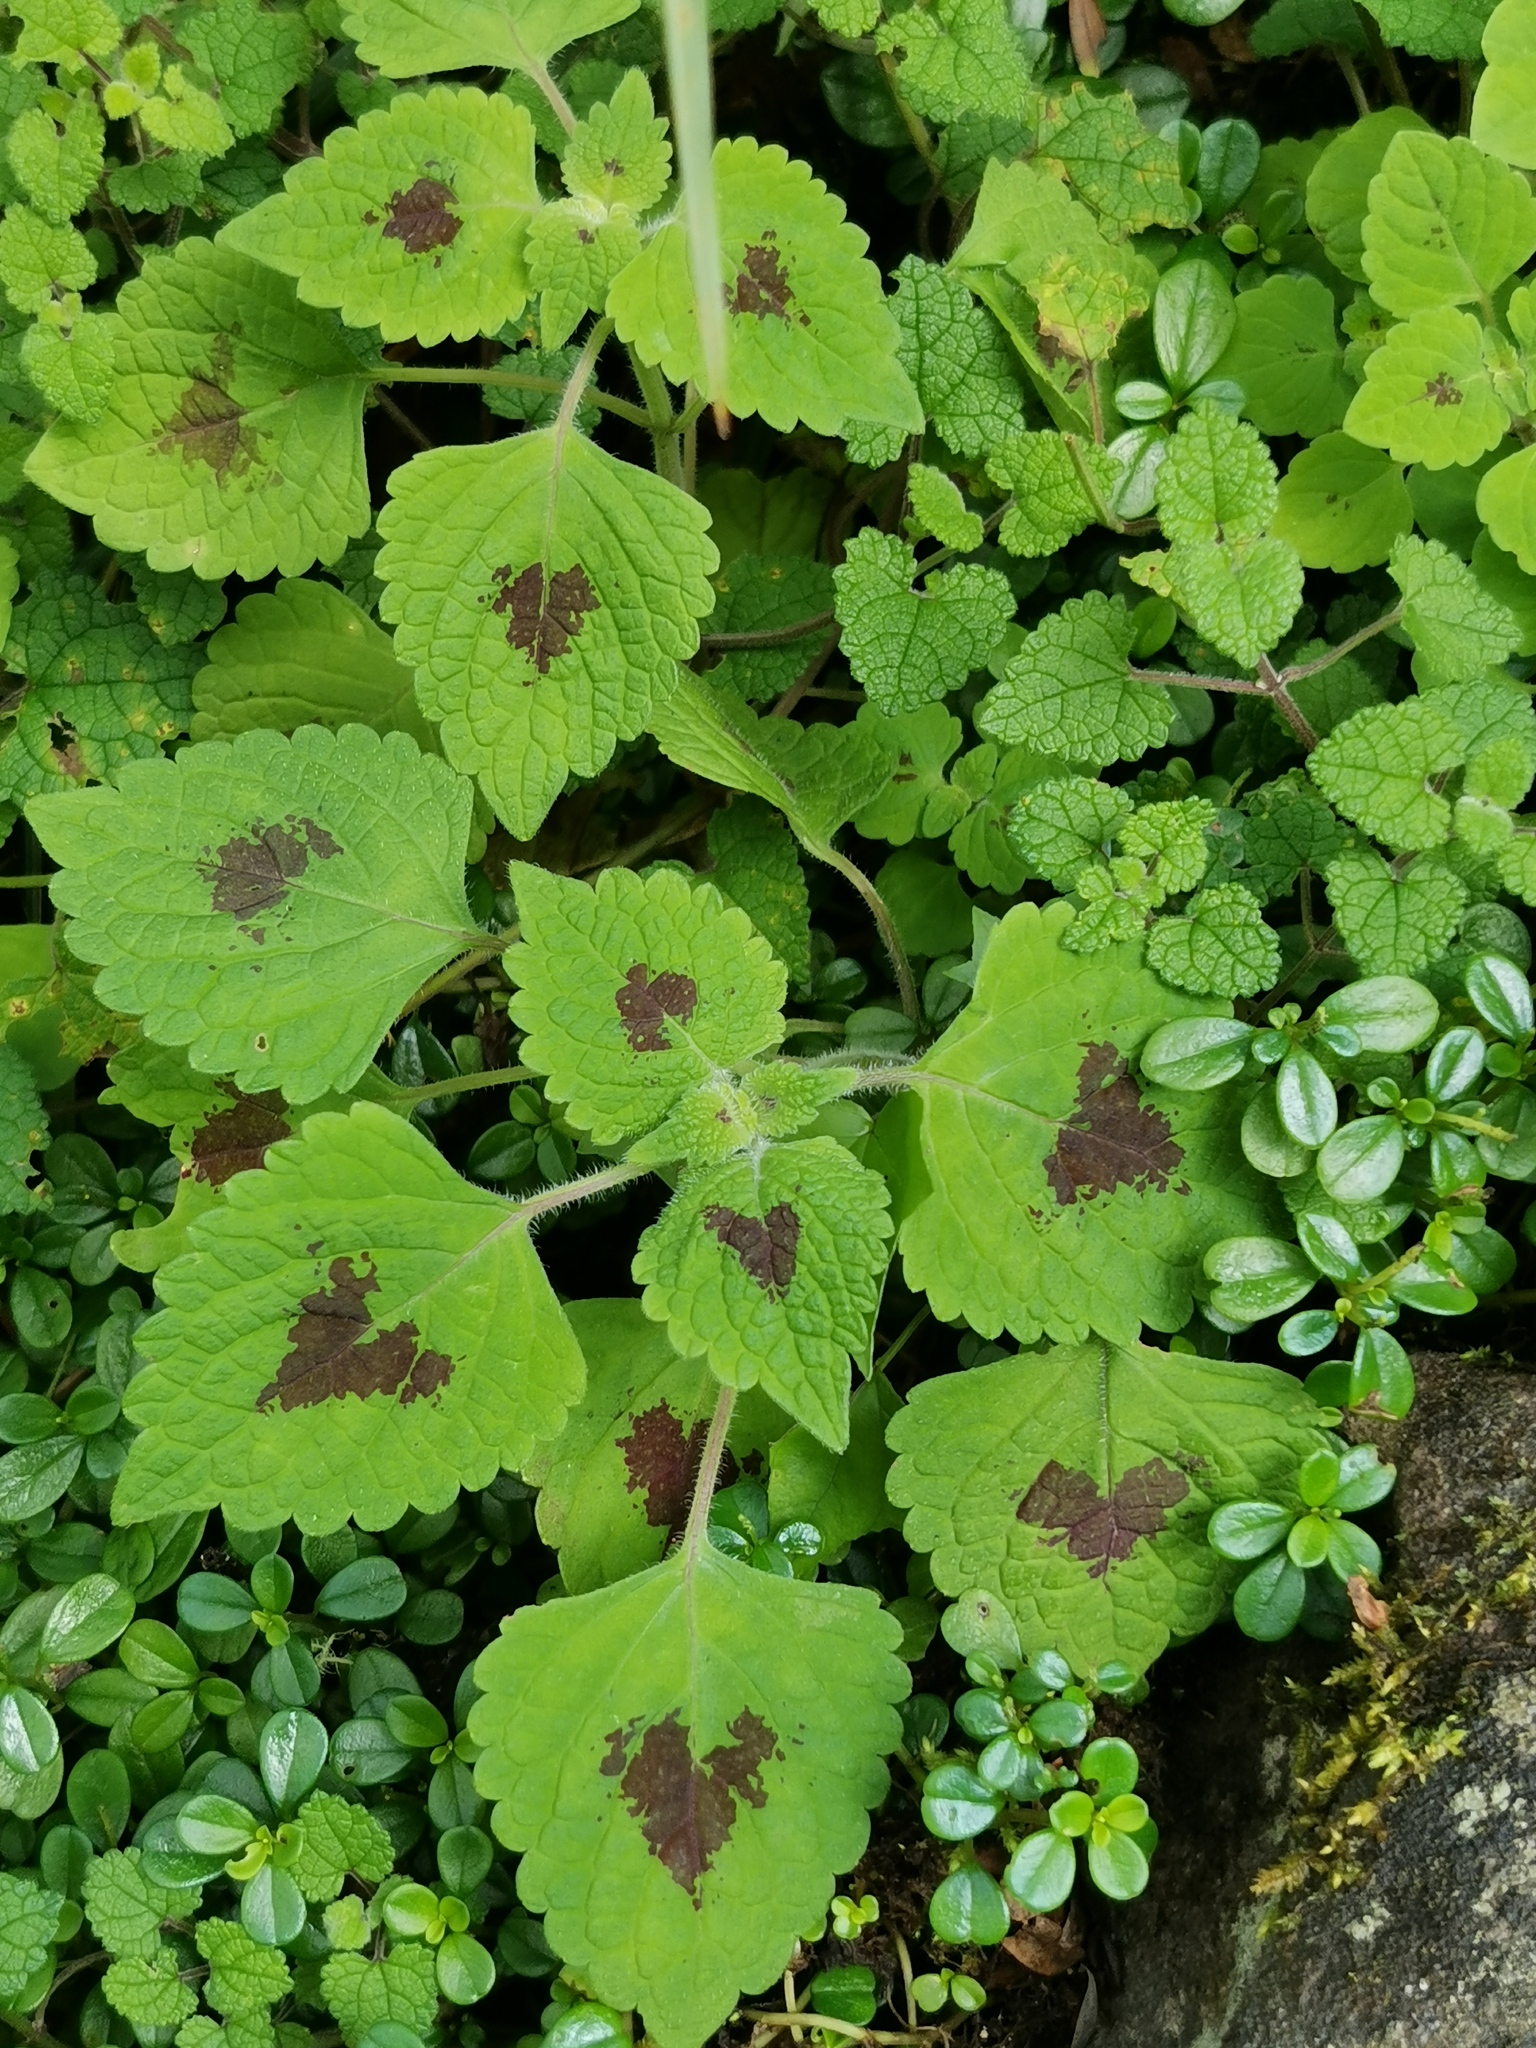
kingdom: Plantae
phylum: Tracheophyta
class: Magnoliopsida
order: Lamiales
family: Lamiaceae
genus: Coleus
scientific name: Coleus bojeri
